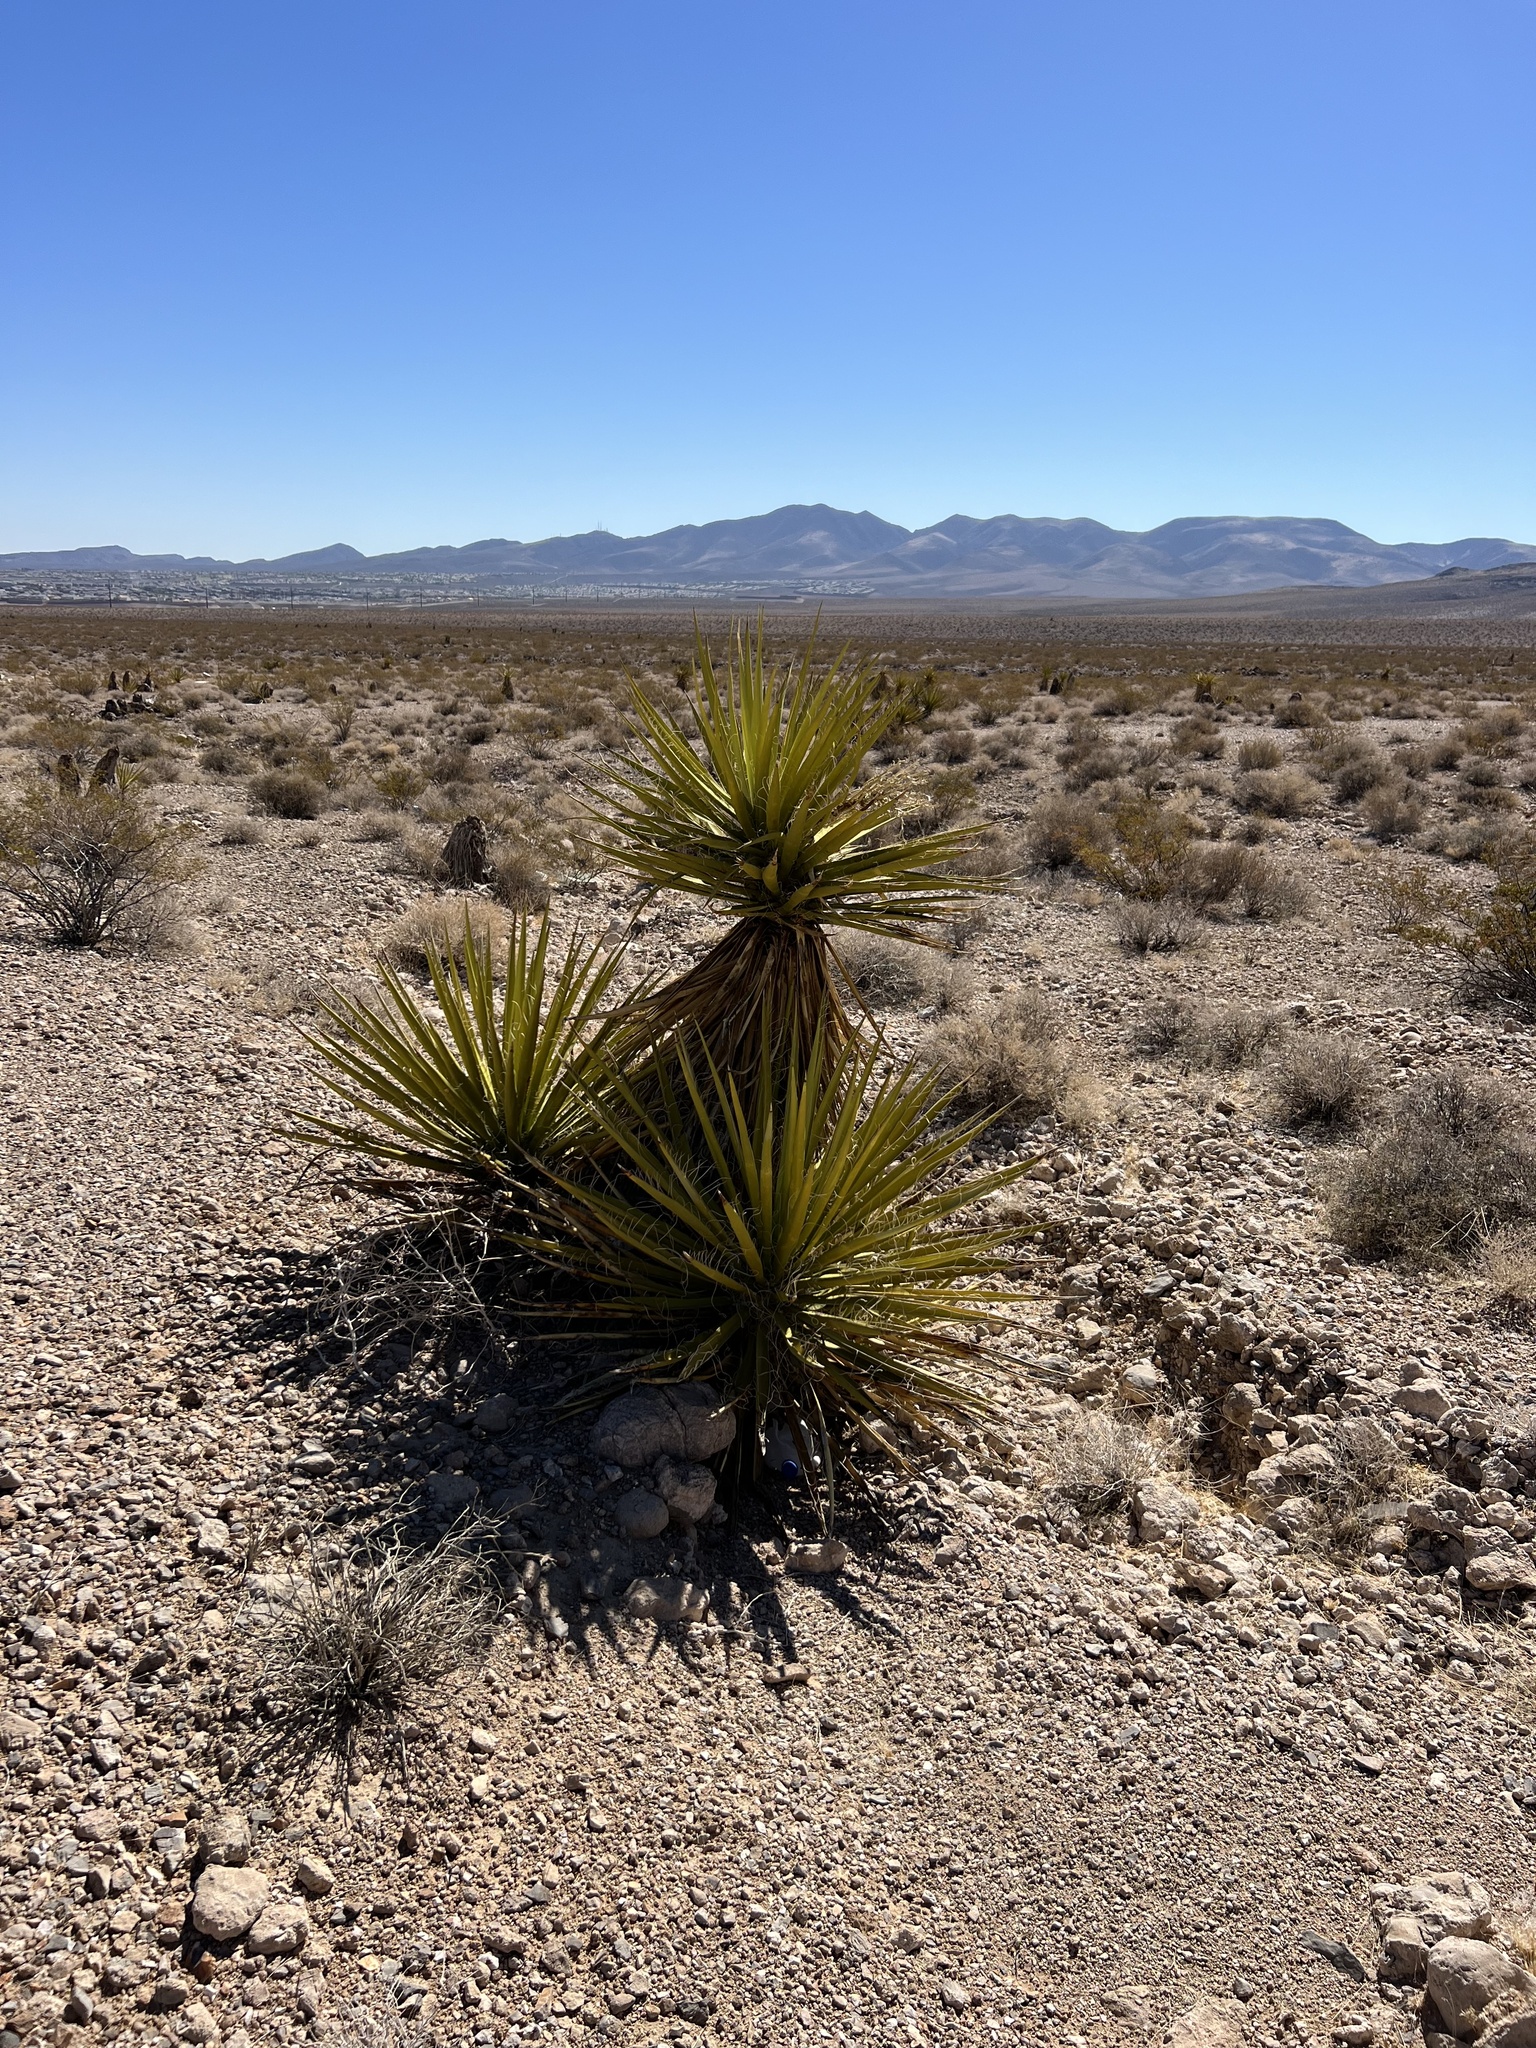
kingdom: Plantae
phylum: Tracheophyta
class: Liliopsida
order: Asparagales
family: Asparagaceae
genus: Yucca
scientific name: Yucca schidigera
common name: Mojave yucca
